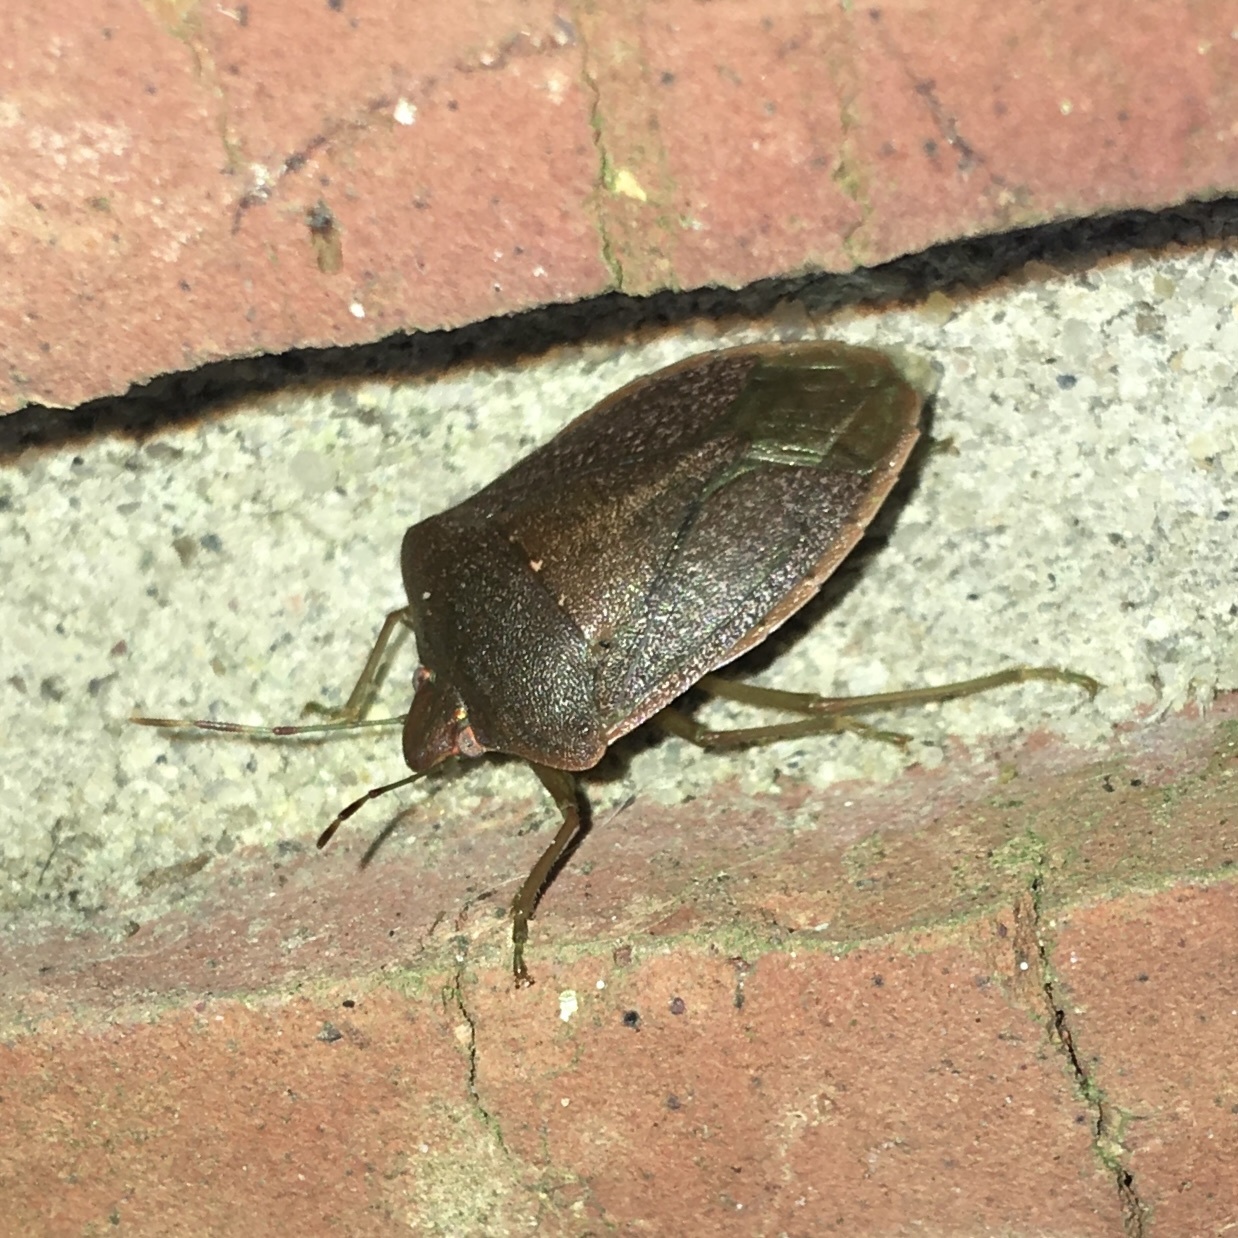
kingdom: Animalia
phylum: Arthropoda
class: Insecta
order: Hemiptera
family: Pentatomidae
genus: Nezara
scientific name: Nezara viridula
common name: Southern green stink bug
